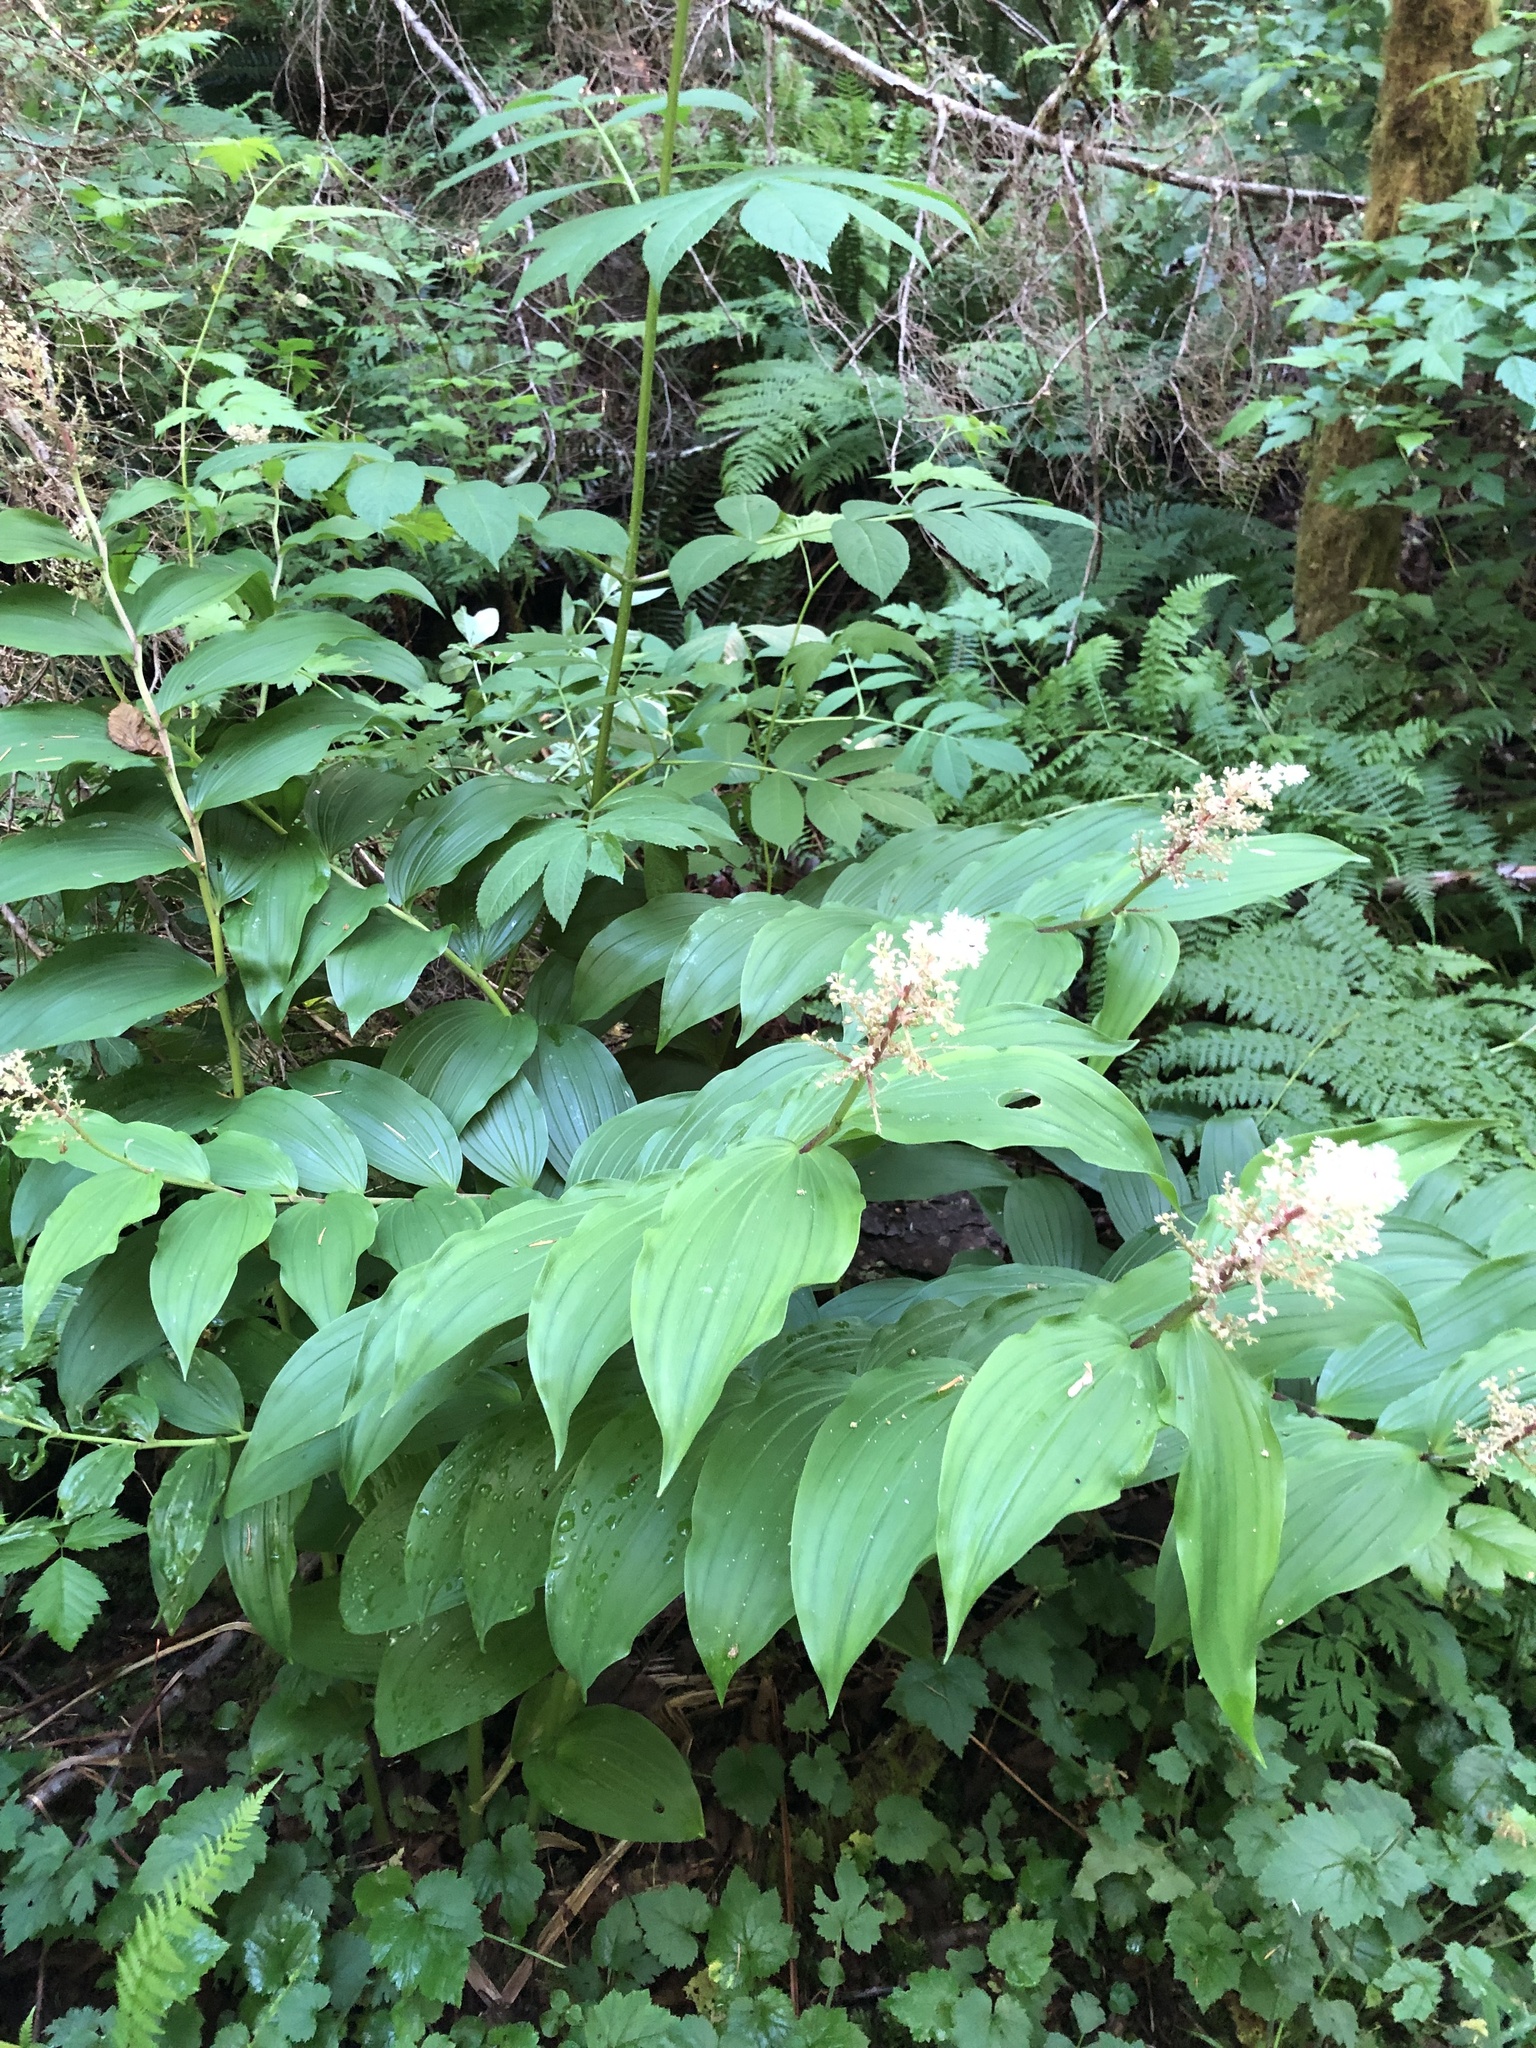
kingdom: Plantae
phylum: Tracheophyta
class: Liliopsida
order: Asparagales
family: Asparagaceae
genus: Maianthemum
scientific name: Maianthemum racemosum
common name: False spikenard
